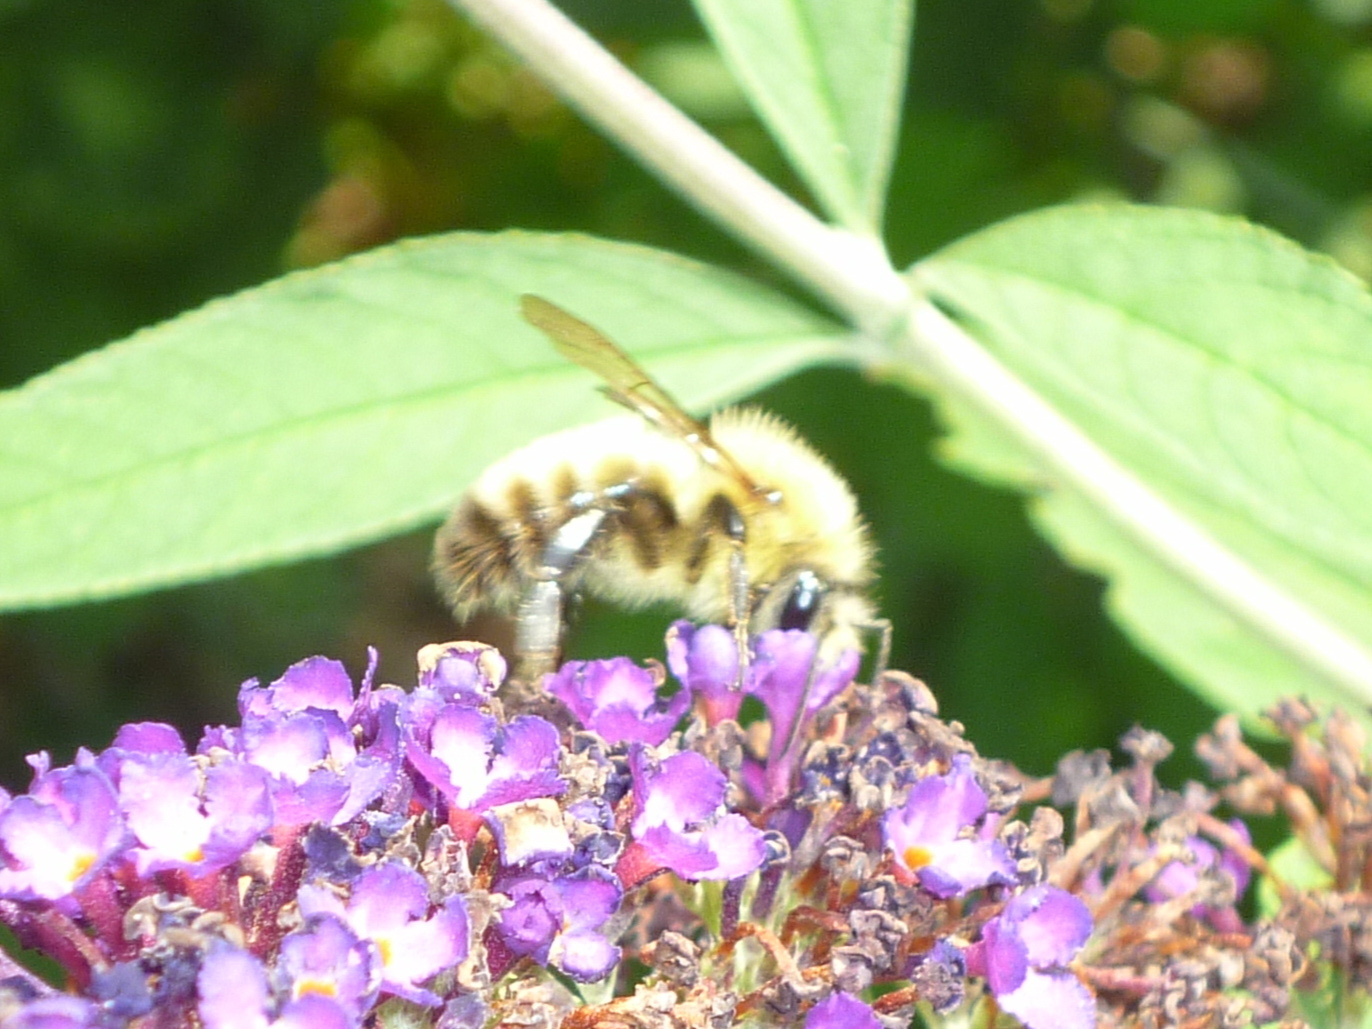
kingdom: Animalia
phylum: Arthropoda
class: Insecta
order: Hymenoptera
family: Apidae
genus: Bombus
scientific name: Bombus perplexus
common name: Confusing bumble bee
